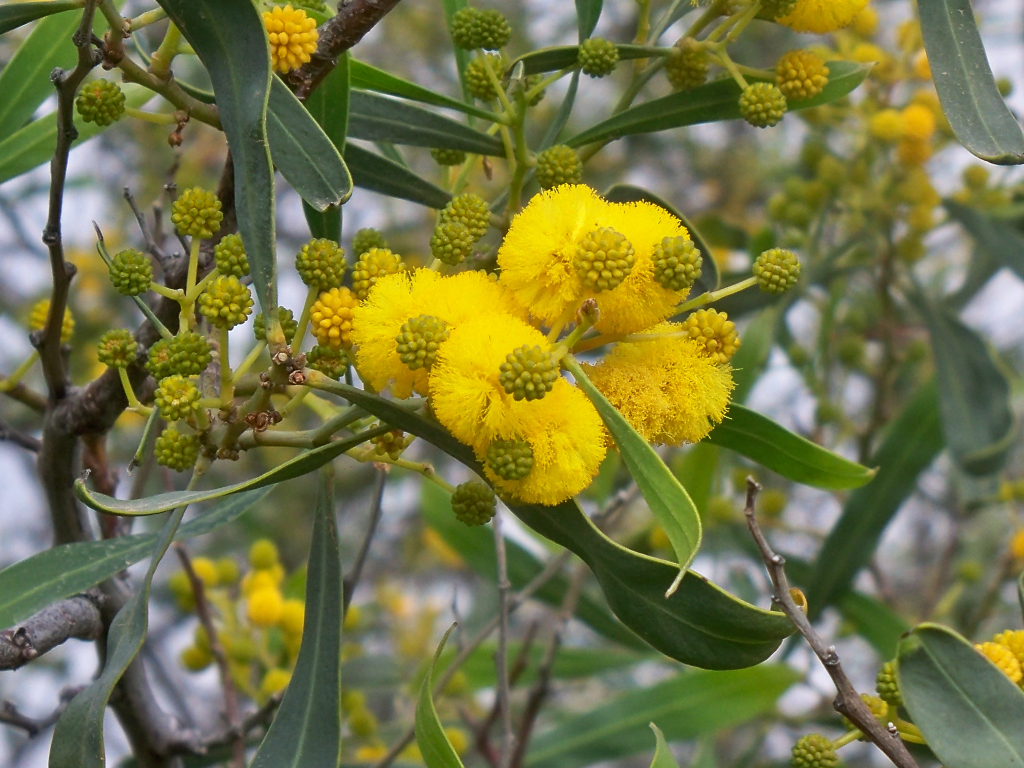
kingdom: Plantae
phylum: Tracheophyta
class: Magnoliopsida
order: Fabales
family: Fabaceae
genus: Acacia
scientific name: Acacia saligna
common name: Orange wattle
